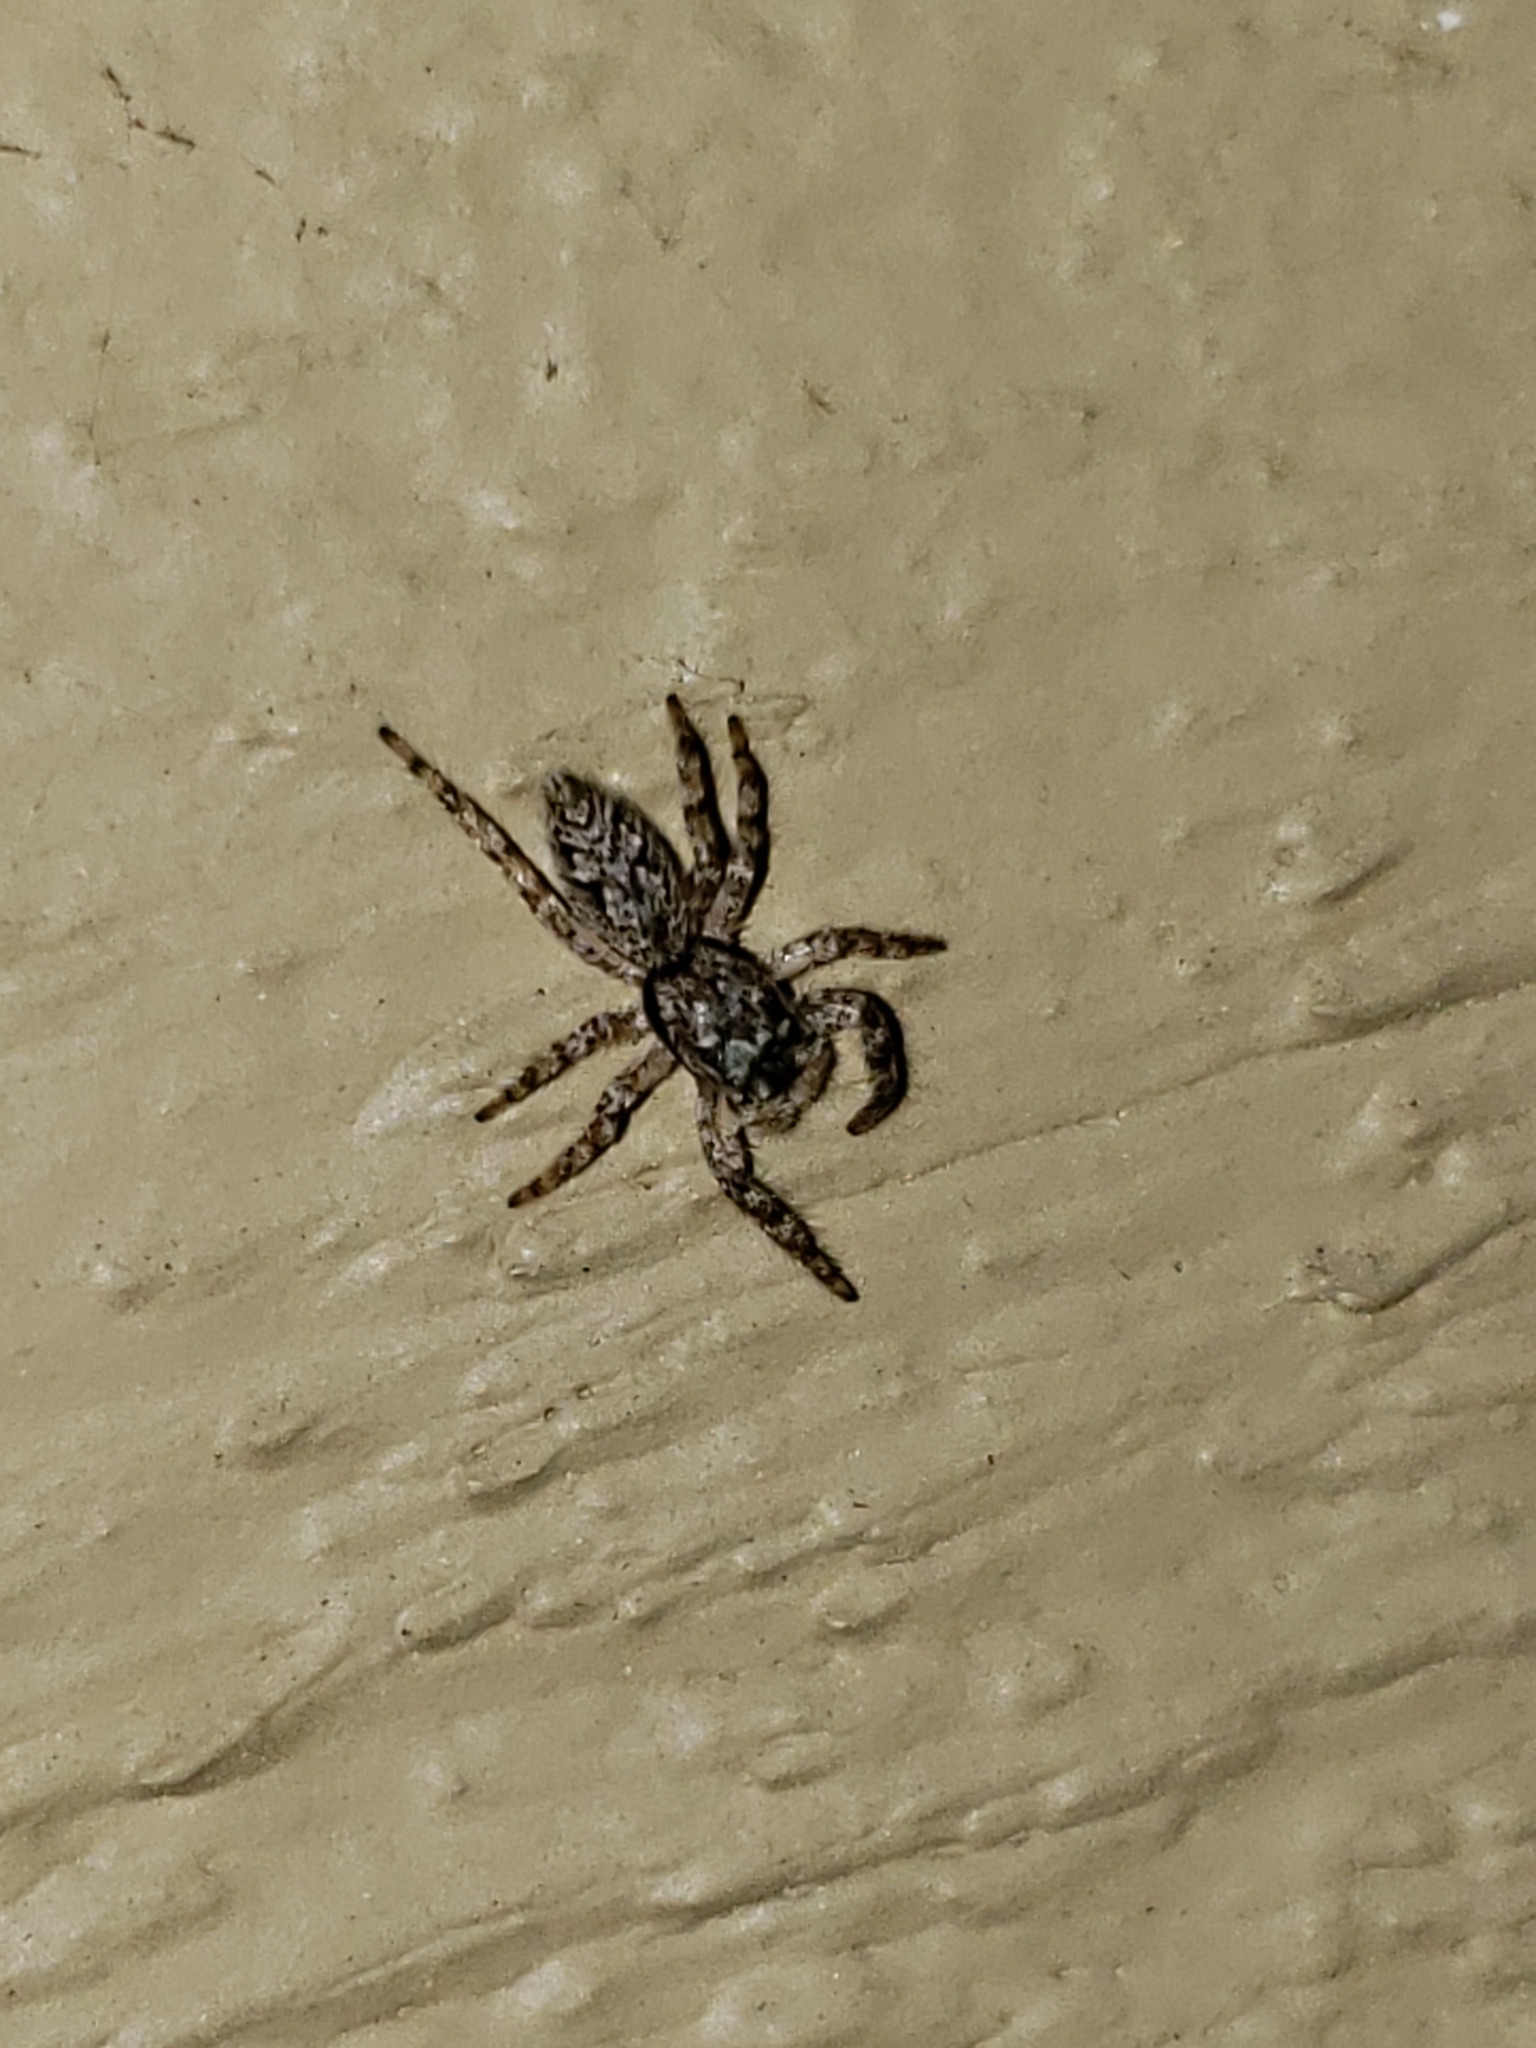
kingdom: Animalia
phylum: Arthropoda
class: Arachnida
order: Araneae
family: Salticidae
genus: Platycryptus
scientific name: Platycryptus undatus
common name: Tan jumping spider
